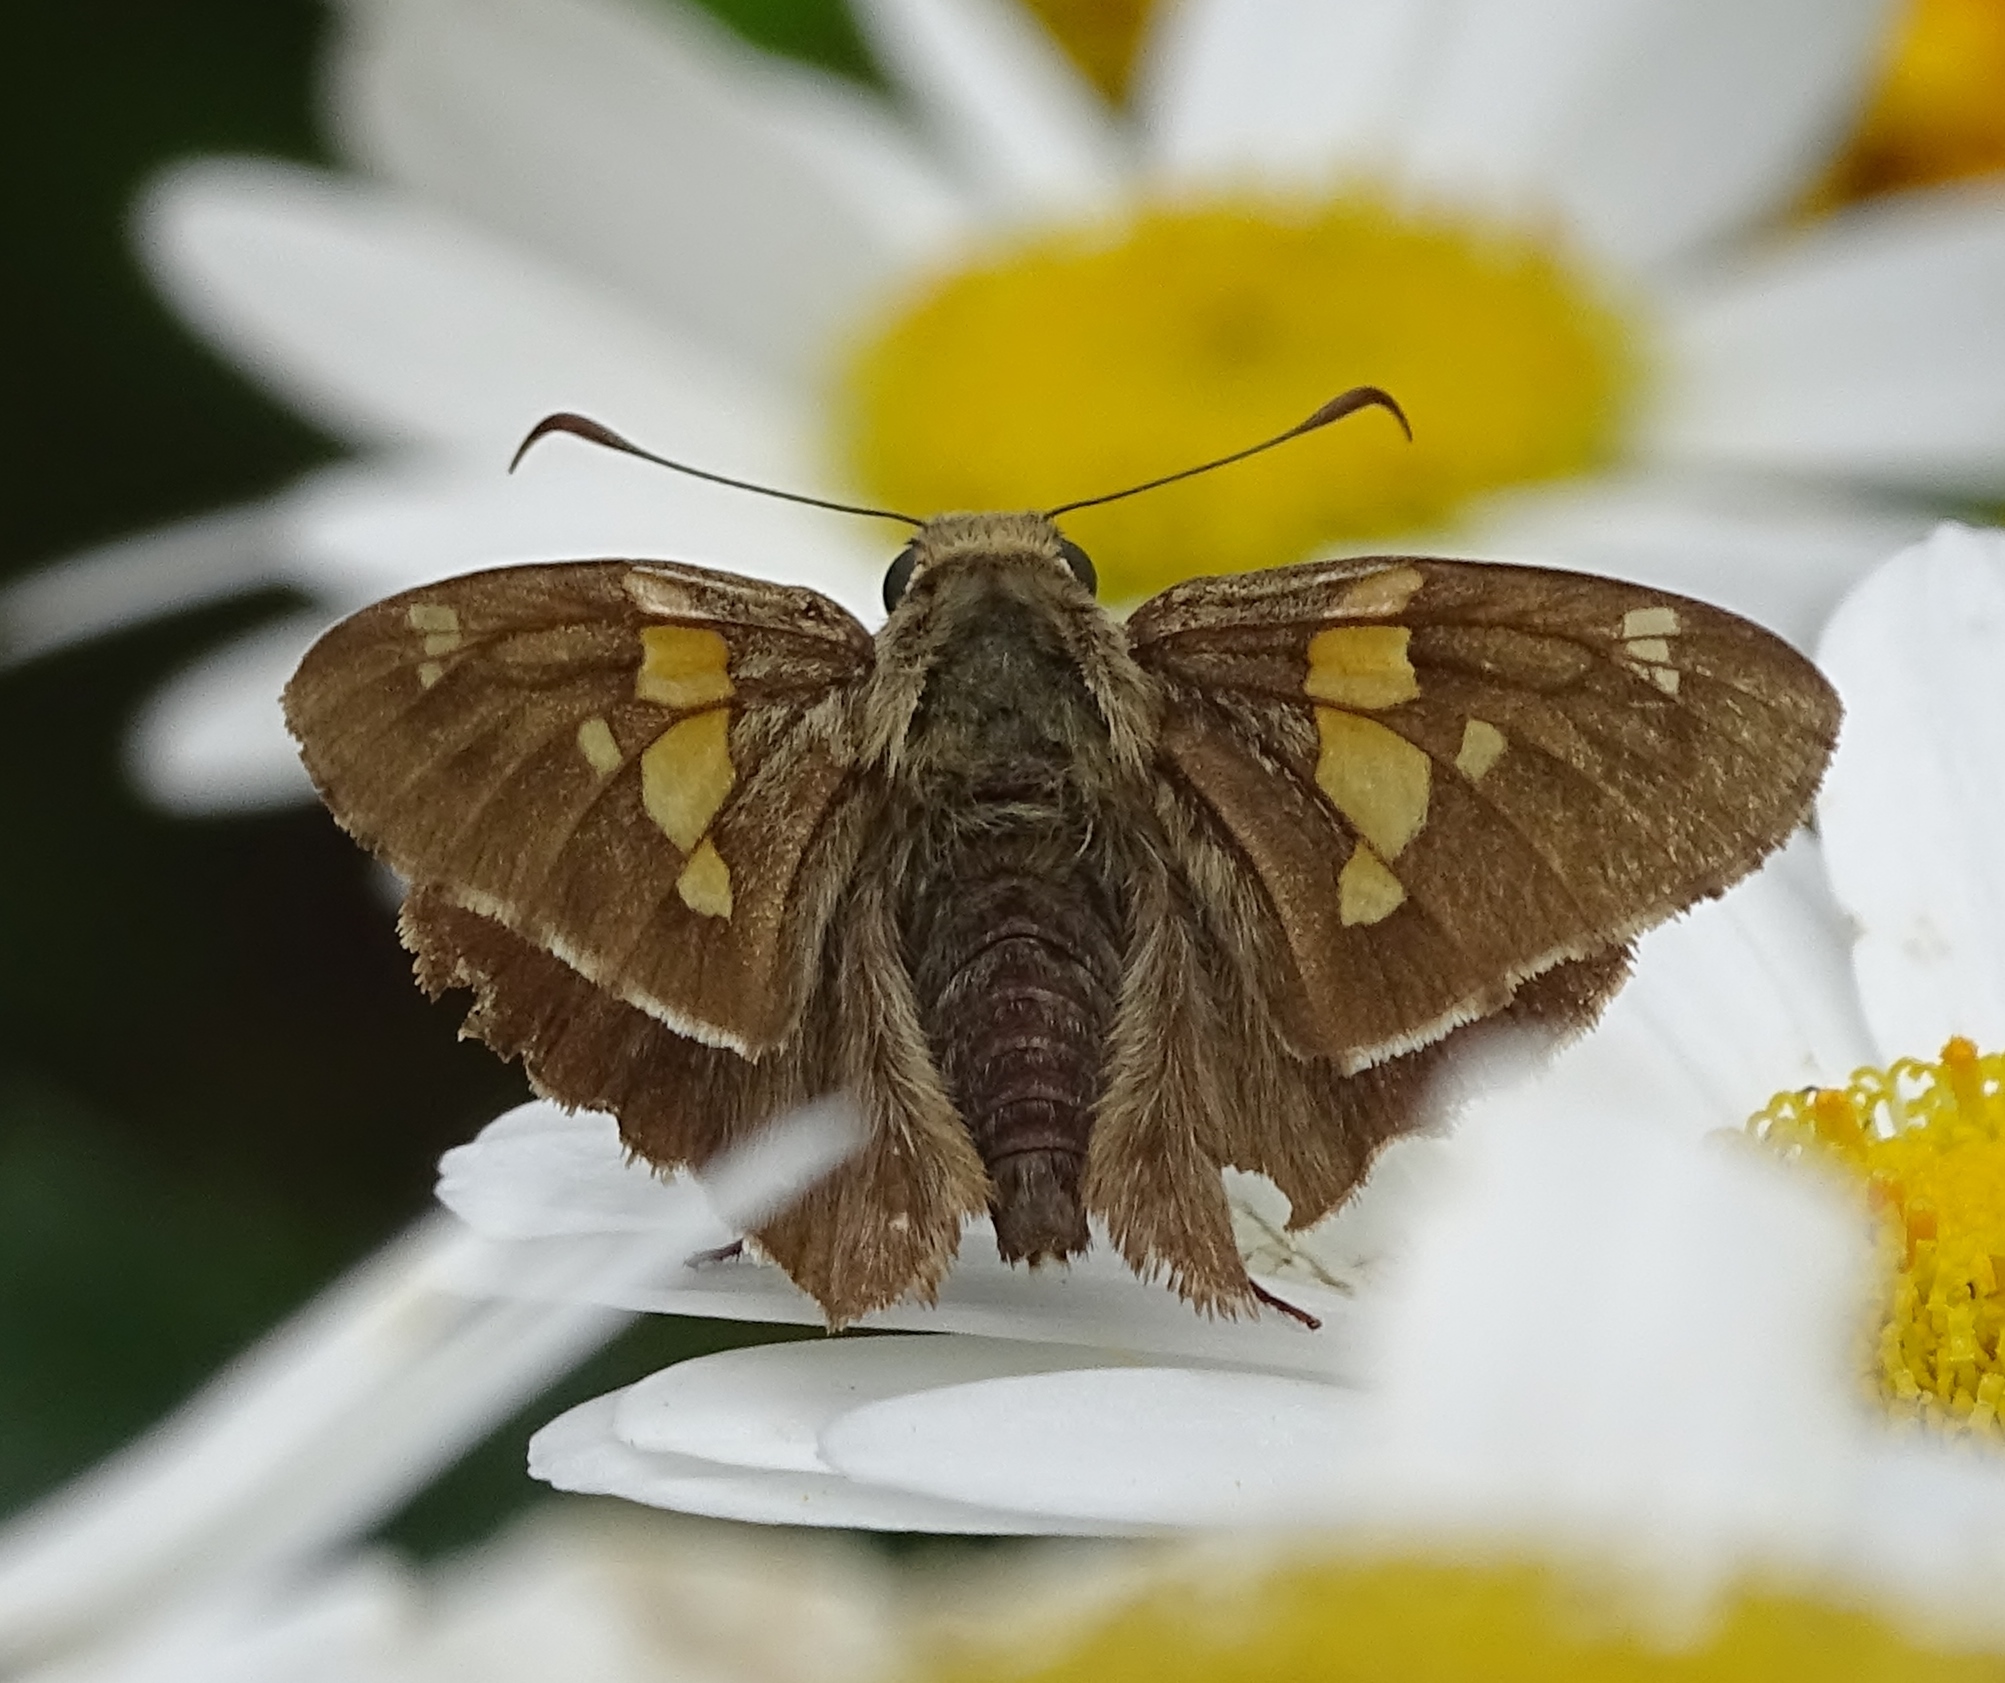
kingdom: Animalia
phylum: Arthropoda
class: Insecta
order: Lepidoptera
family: Hesperiidae
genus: Epargyreus
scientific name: Epargyreus clarus
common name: Silver-spotted skipper
